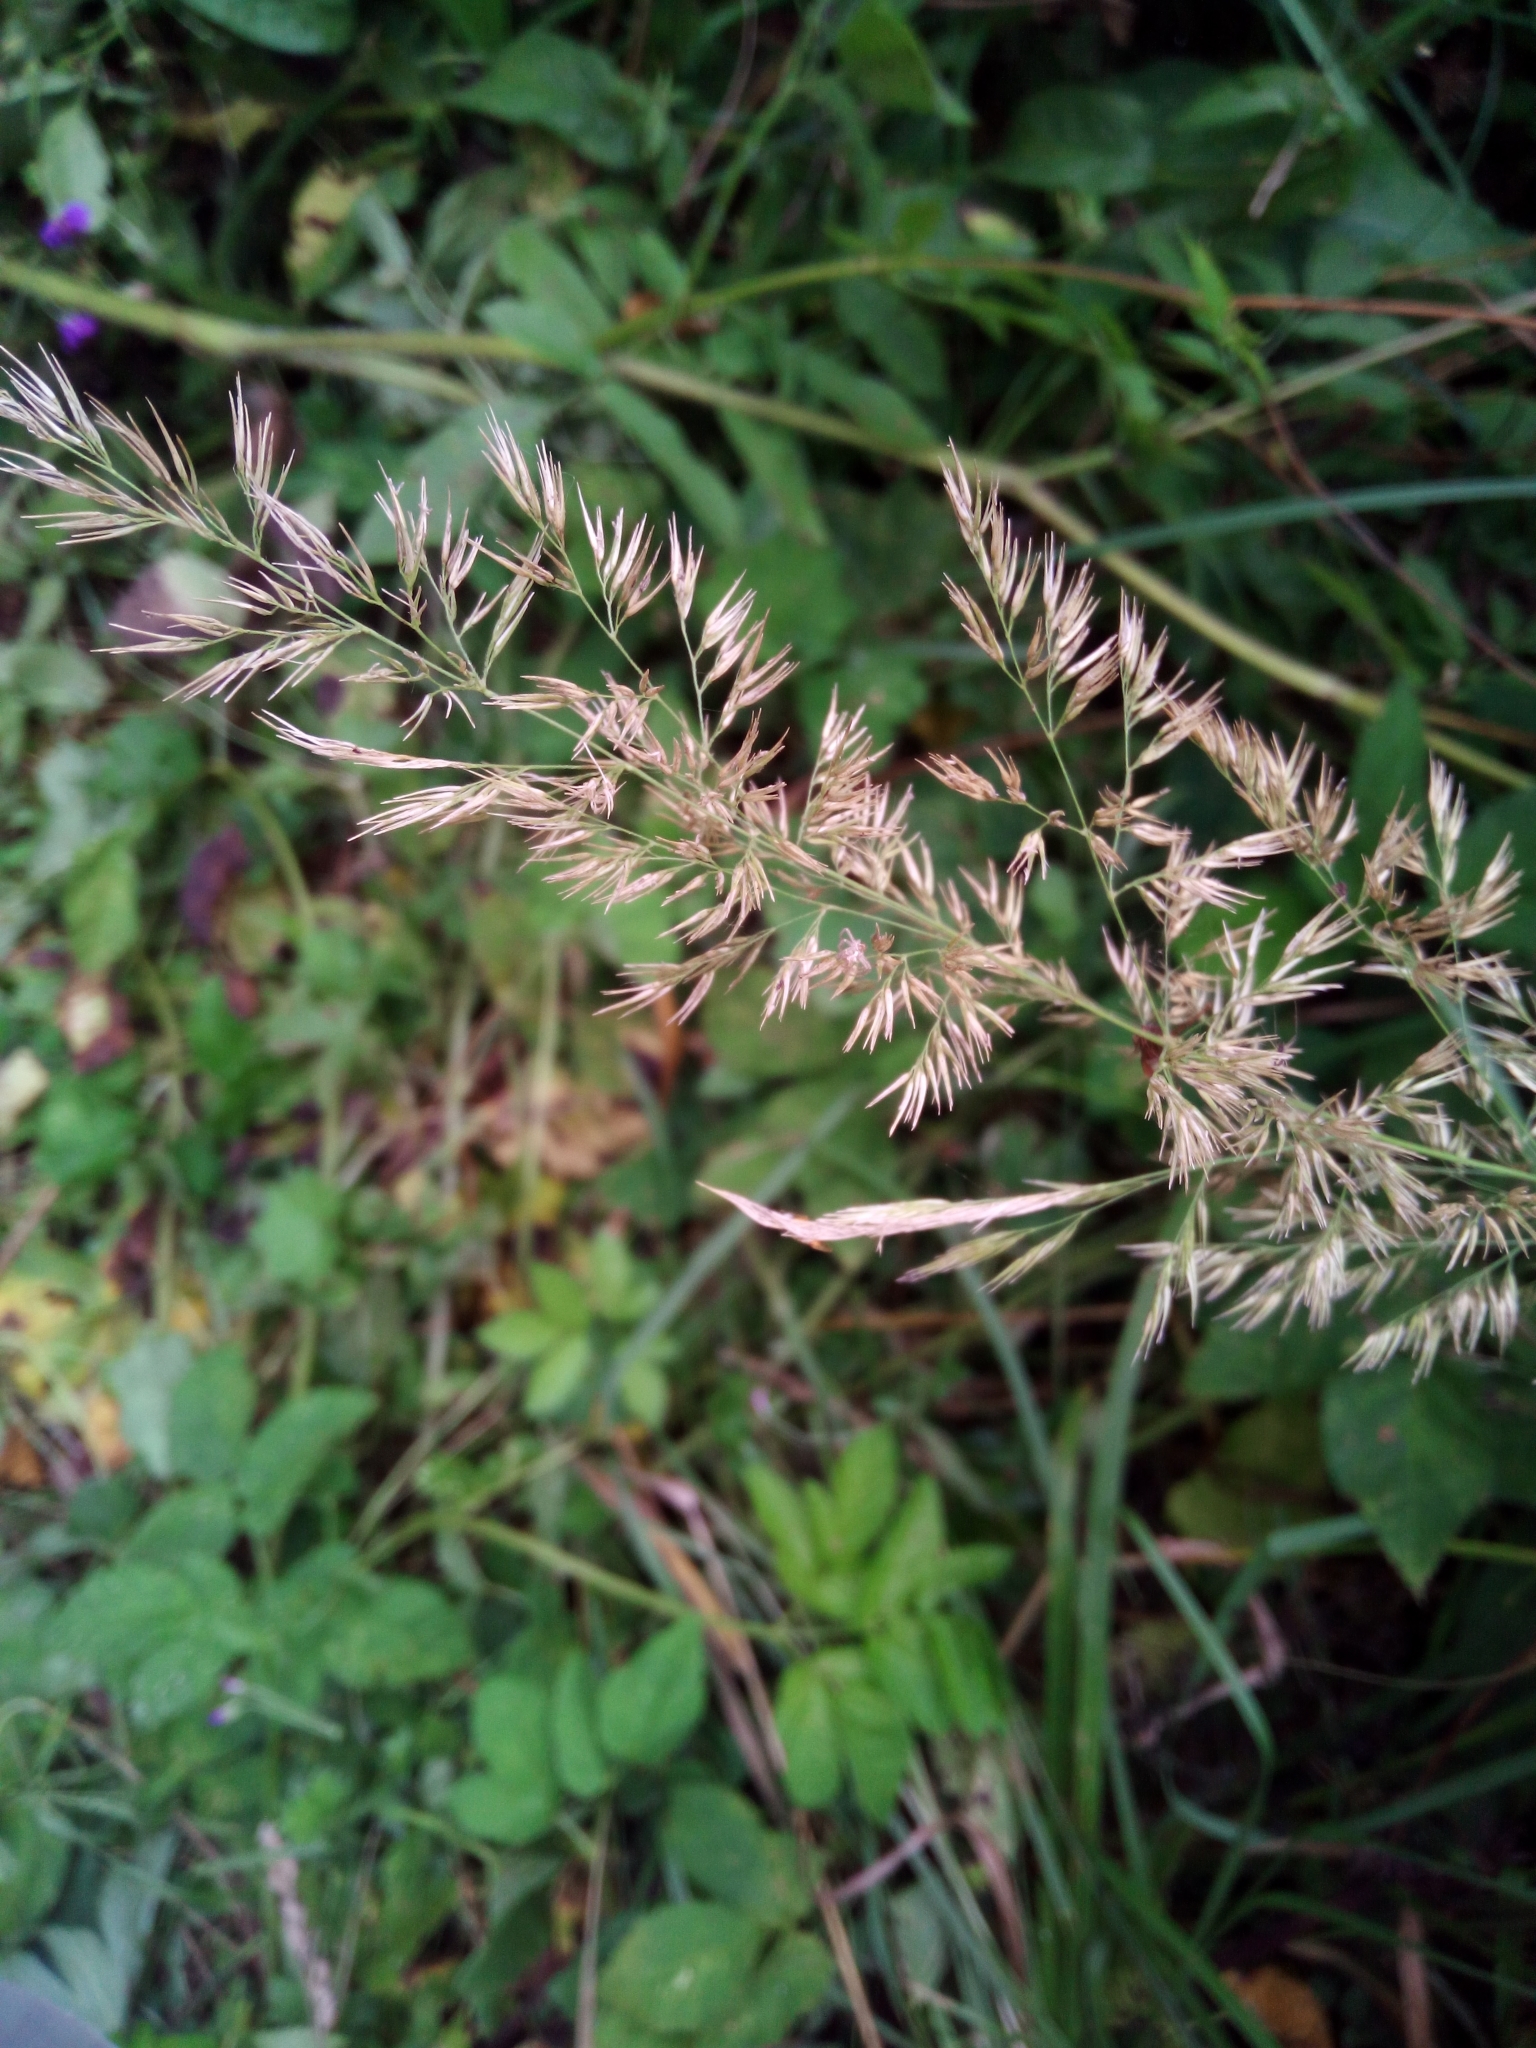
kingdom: Plantae
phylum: Tracheophyta
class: Liliopsida
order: Poales
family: Poaceae
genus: Calamagrostis
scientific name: Calamagrostis epigejos
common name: Wood small-reed
